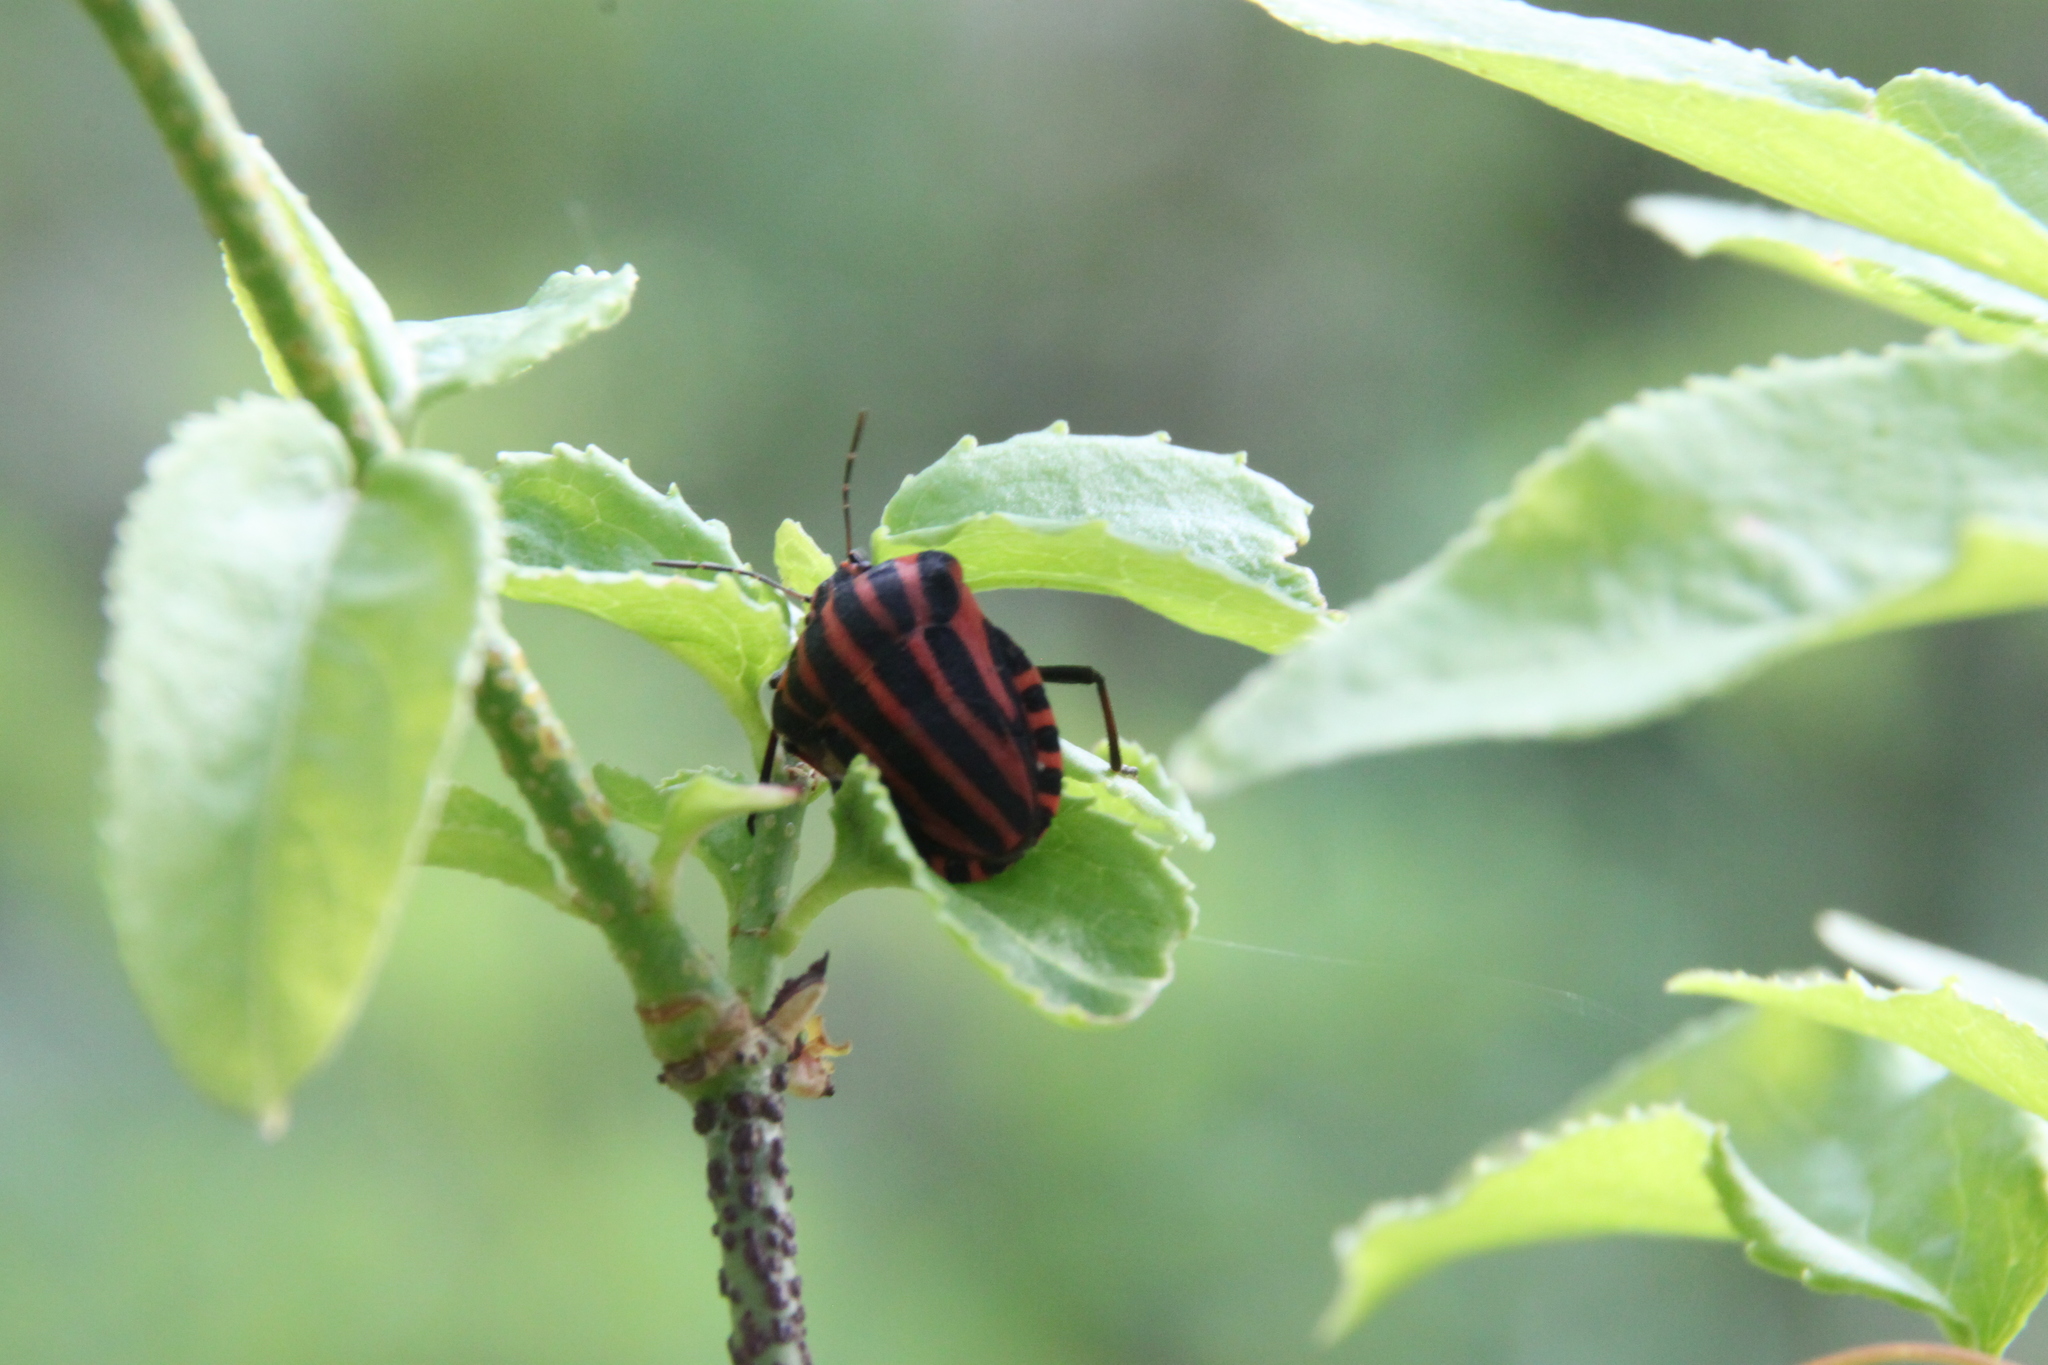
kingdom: Animalia
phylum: Arthropoda
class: Insecta
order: Hemiptera
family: Pentatomidae
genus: Graphosoma
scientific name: Graphosoma italicum
